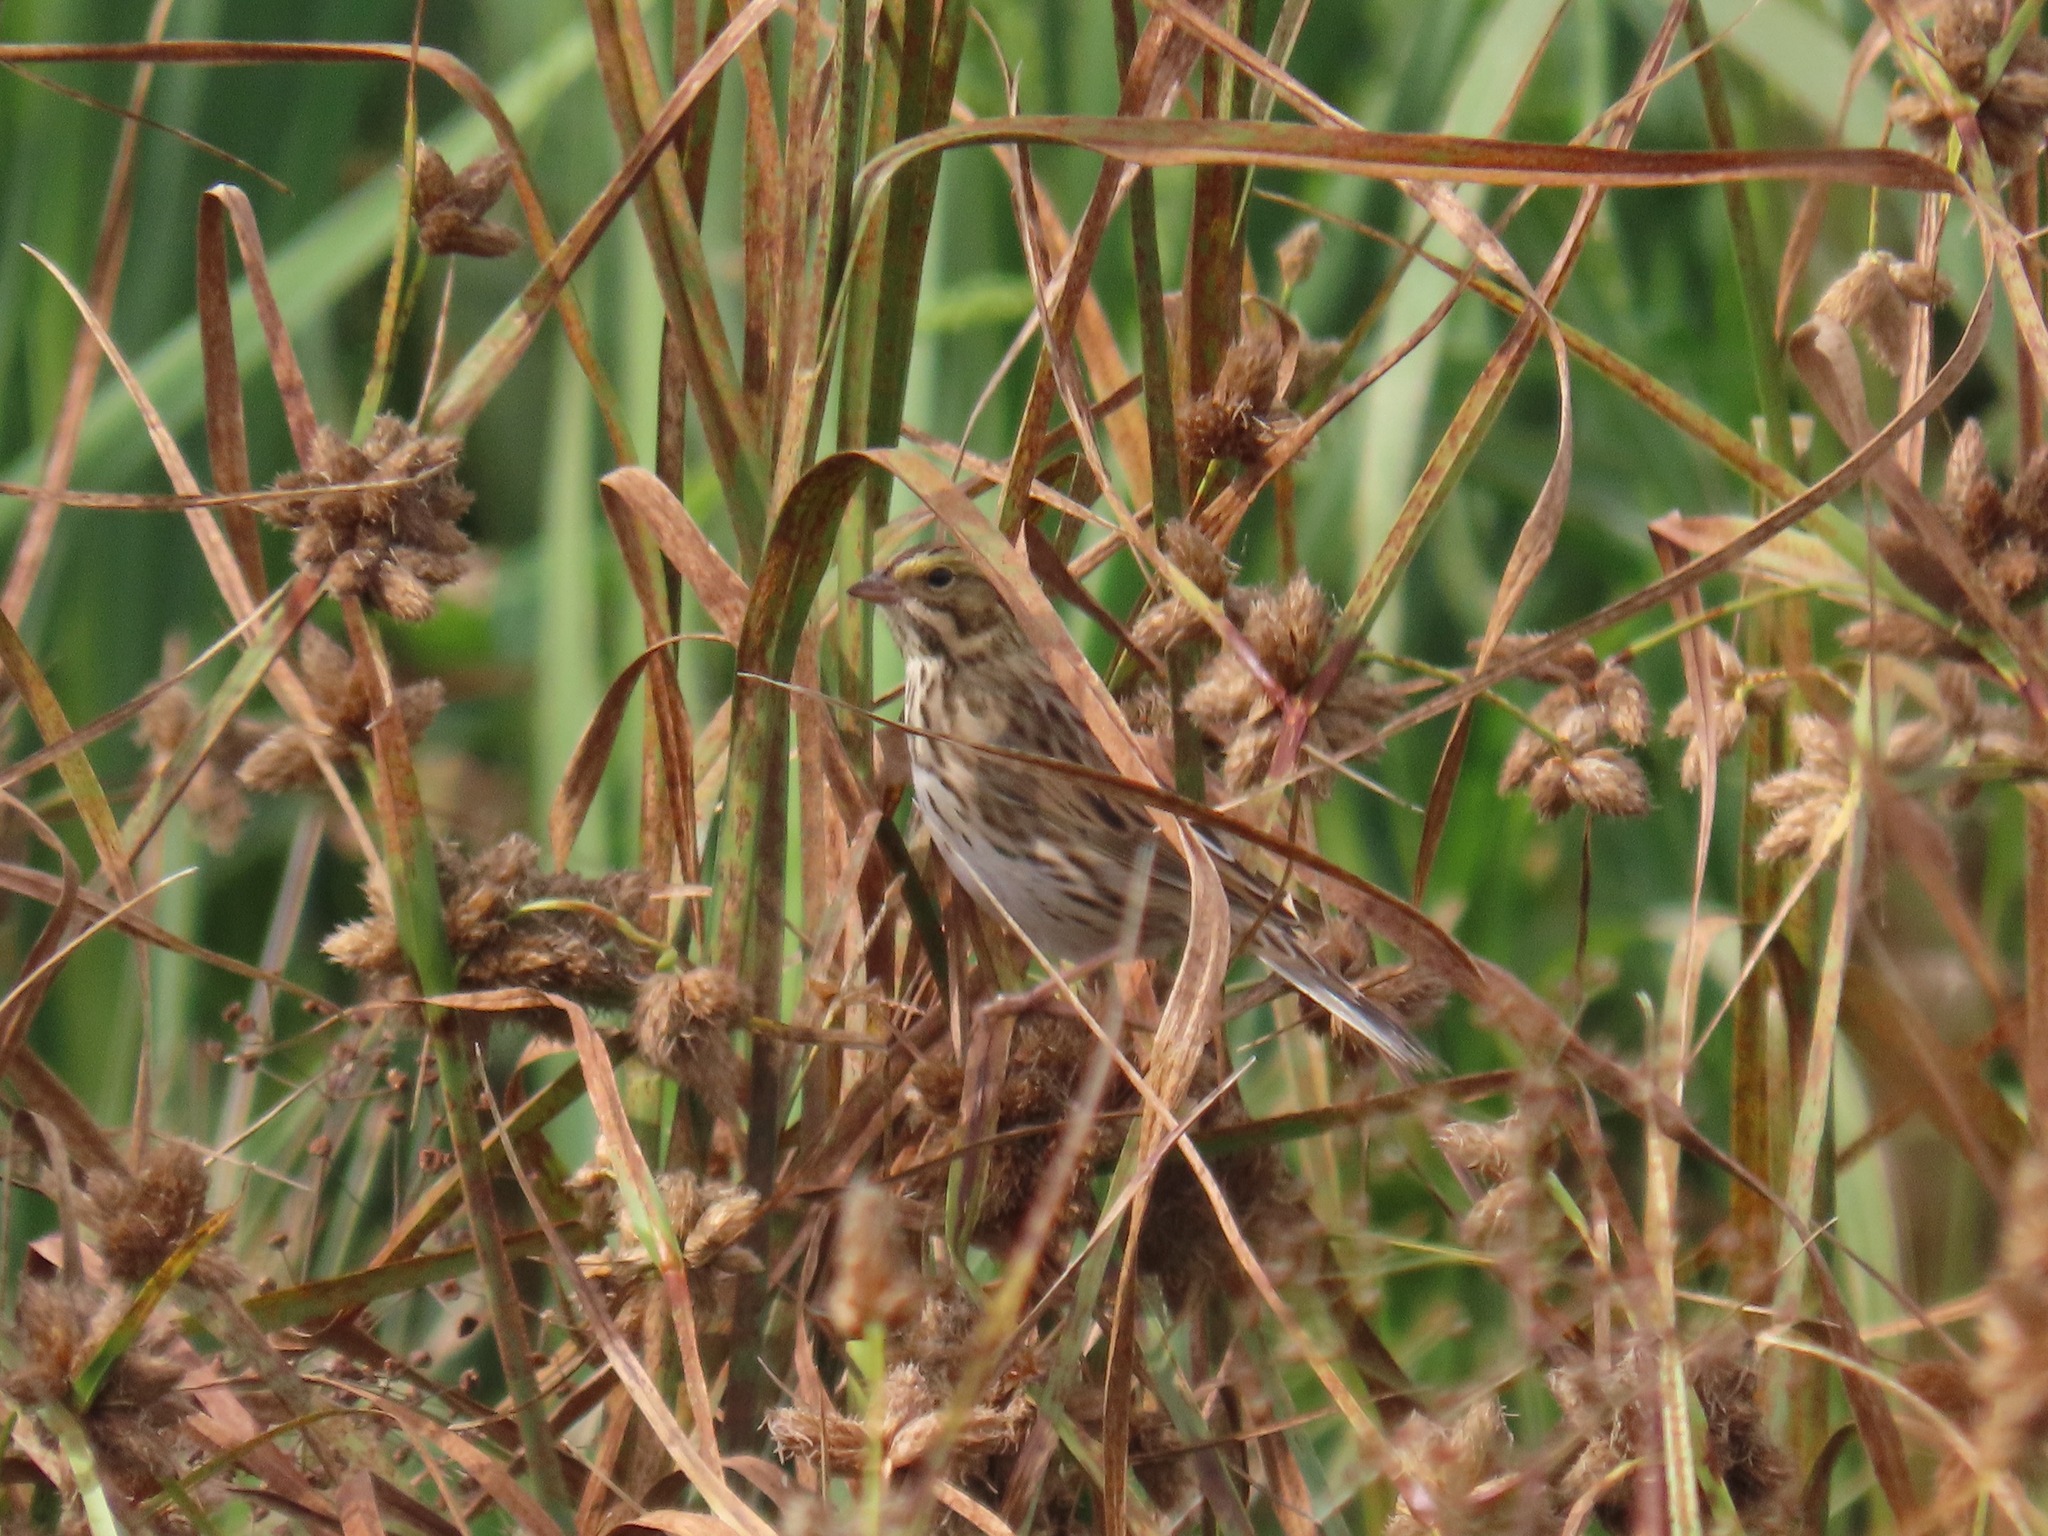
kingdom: Animalia
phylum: Chordata
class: Aves
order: Passeriformes
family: Passerellidae
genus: Passerculus
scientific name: Passerculus sandwichensis
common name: Savannah sparrow
